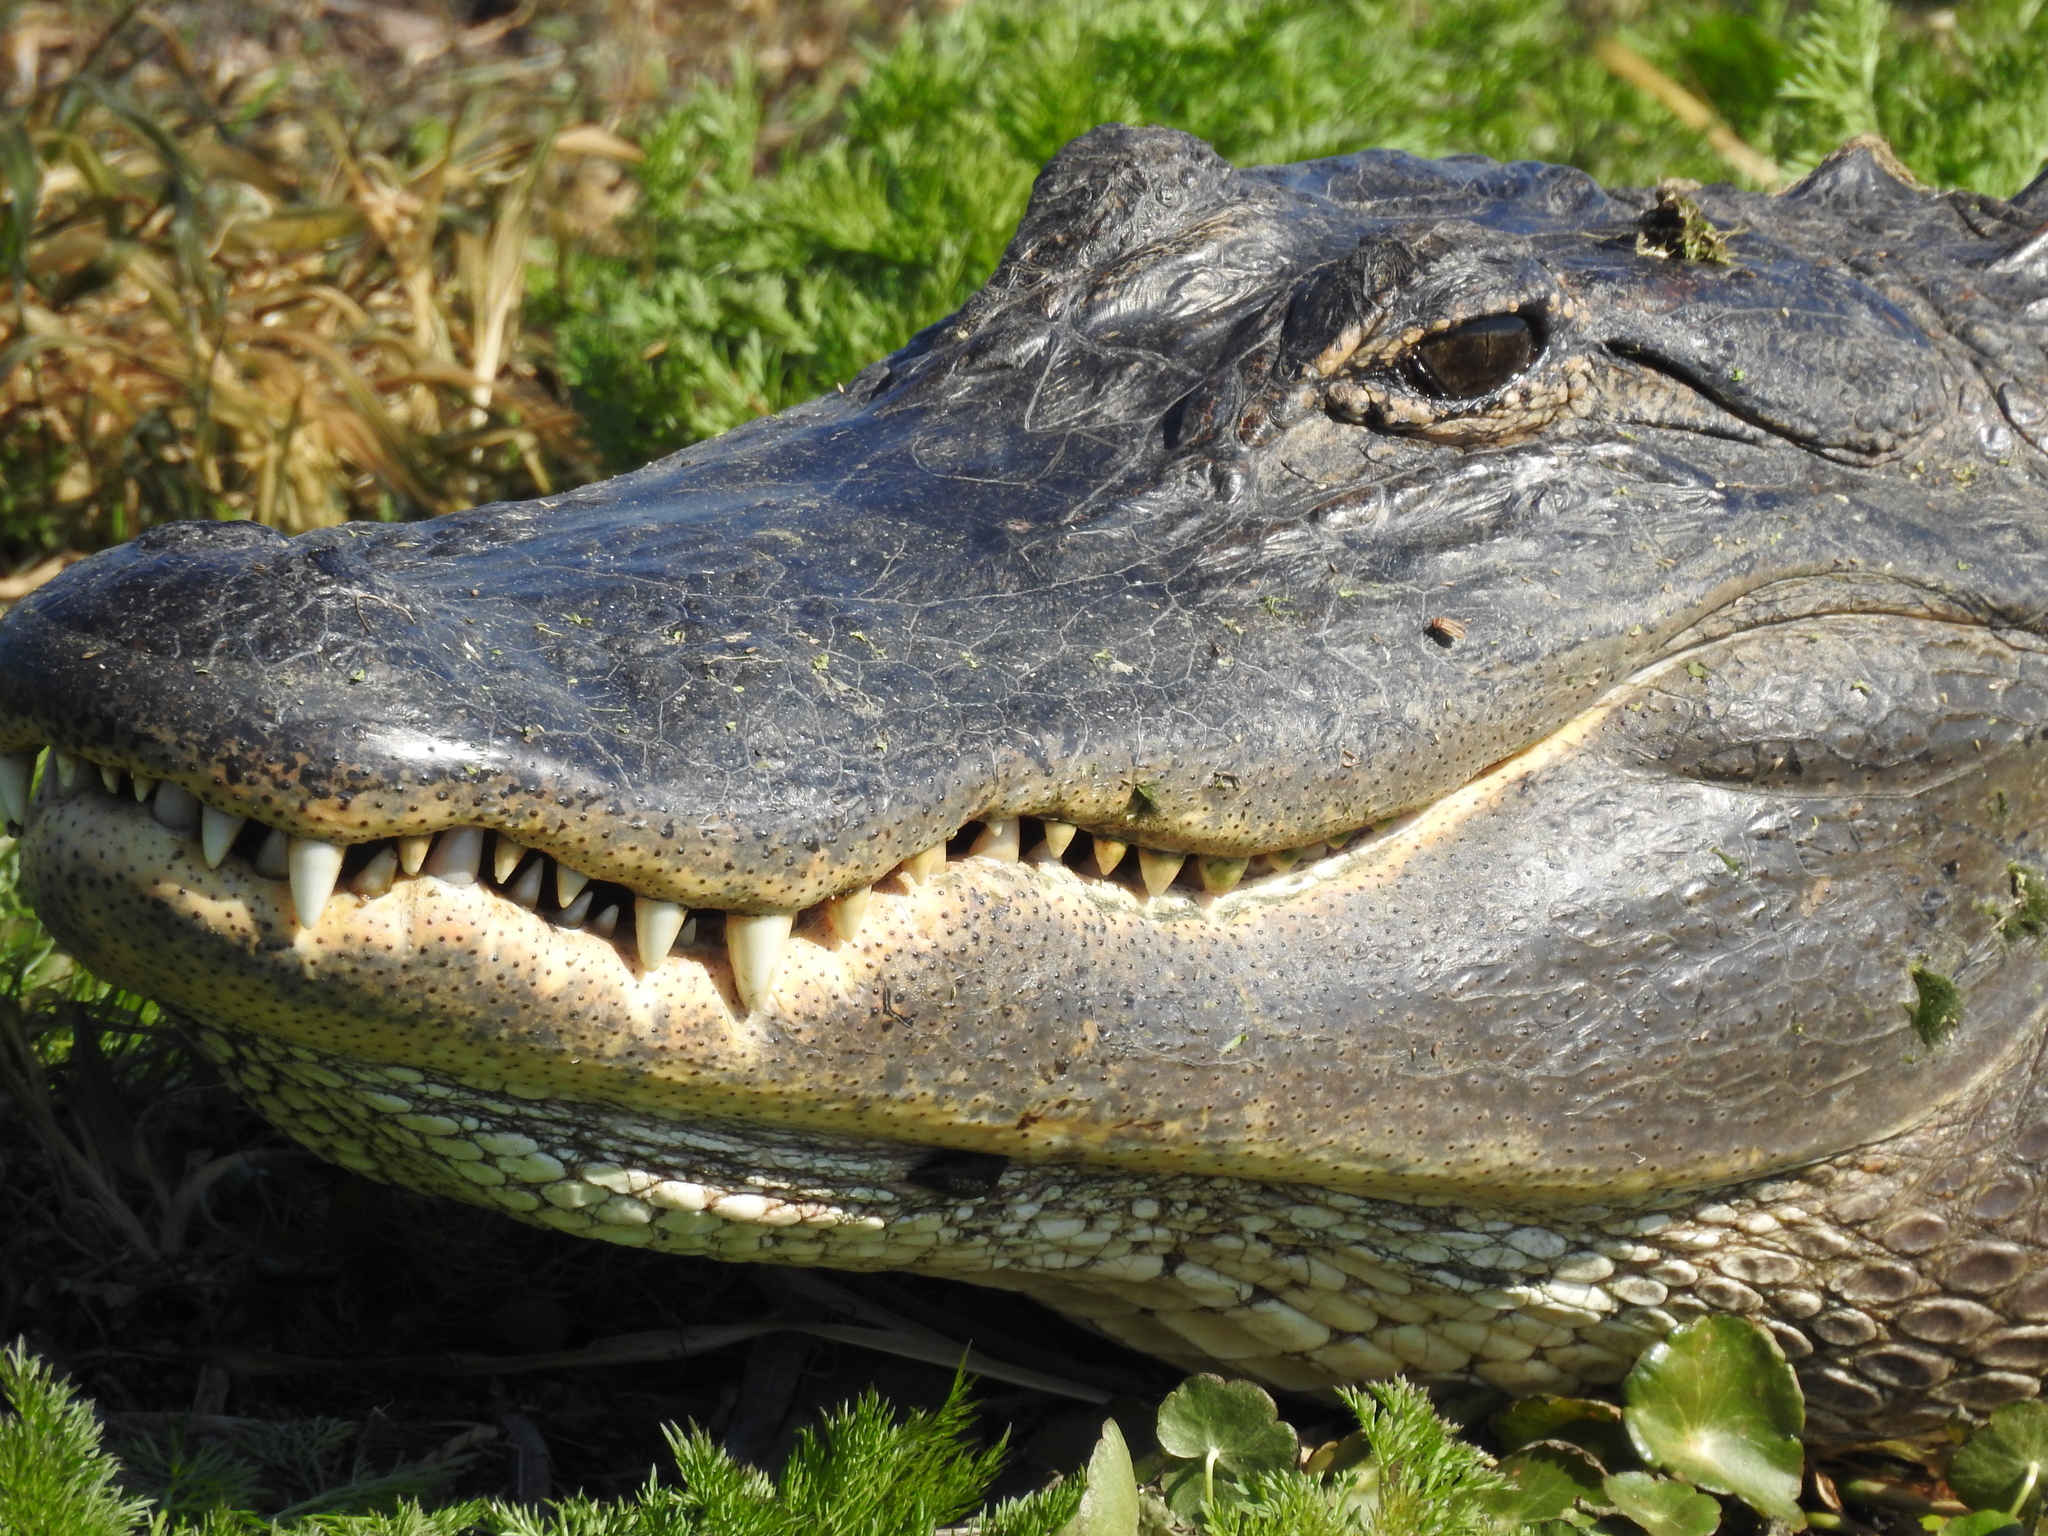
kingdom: Animalia
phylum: Chordata
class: Crocodylia
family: Alligatoridae
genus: Alligator
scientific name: Alligator mississippiensis
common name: American alligator
